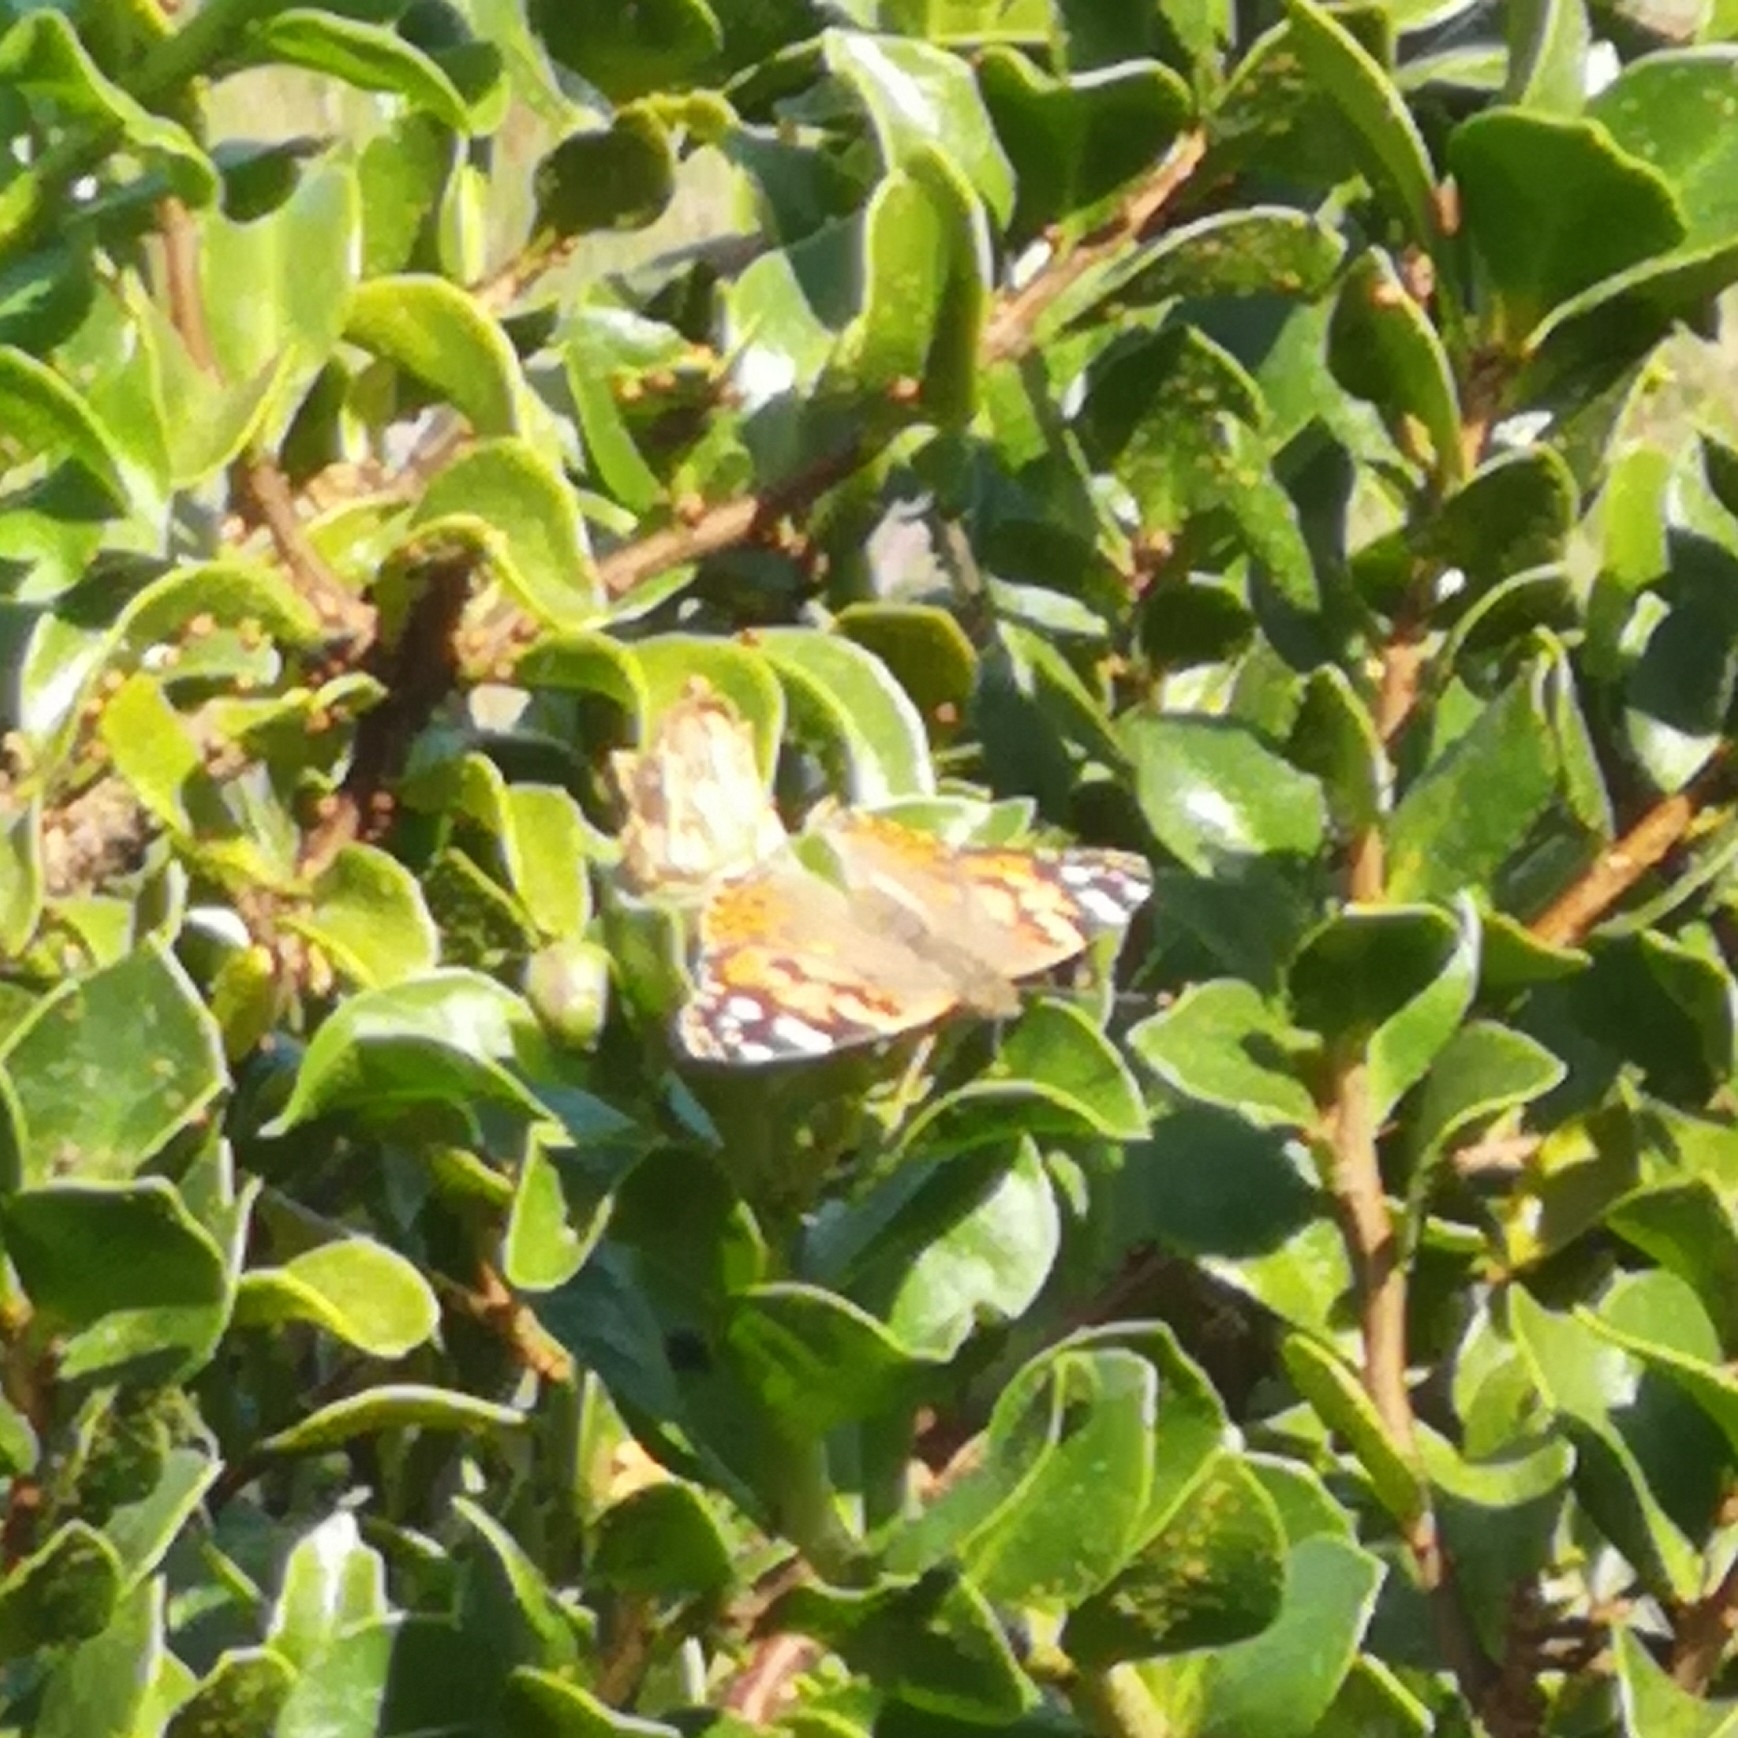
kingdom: Animalia
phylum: Arthropoda
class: Insecta
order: Lepidoptera
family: Nymphalidae
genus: Vanessa
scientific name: Vanessa cardui
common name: Painted lady
